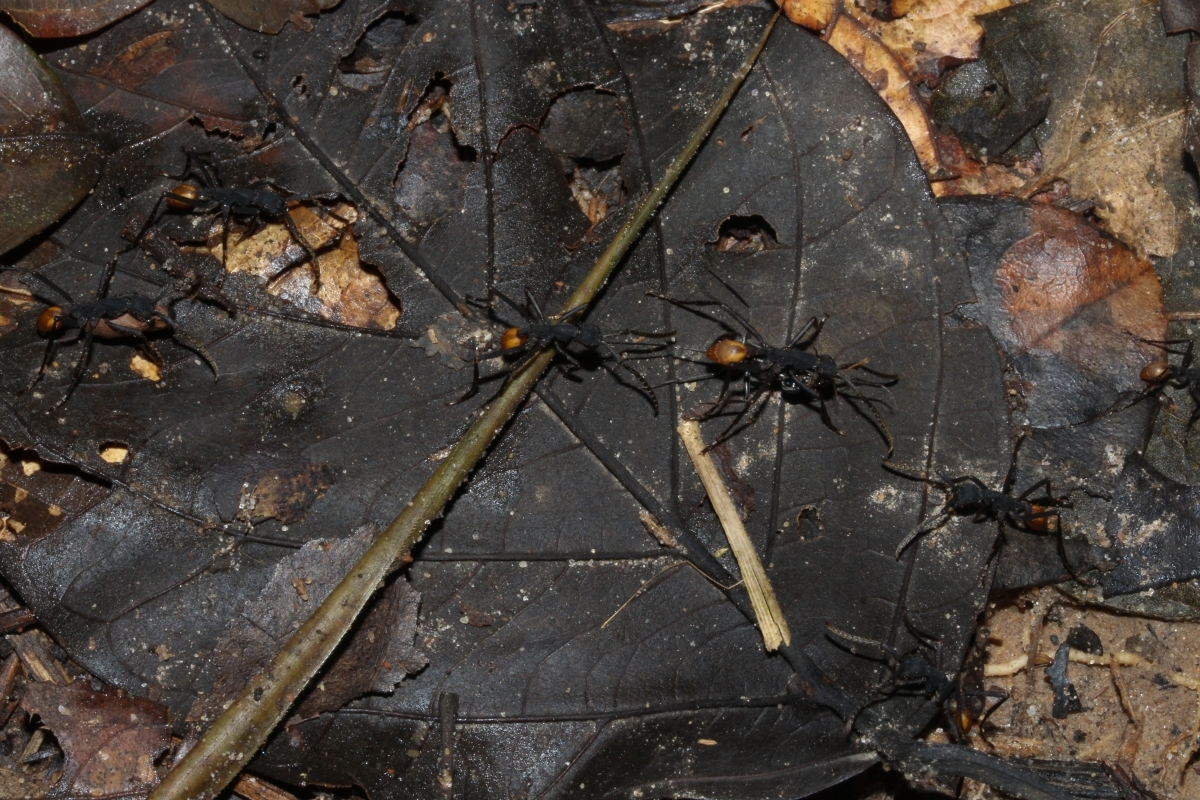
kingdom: Animalia
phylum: Arthropoda
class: Insecta
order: Hymenoptera
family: Formicidae
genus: Eciton
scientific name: Eciton rapax
